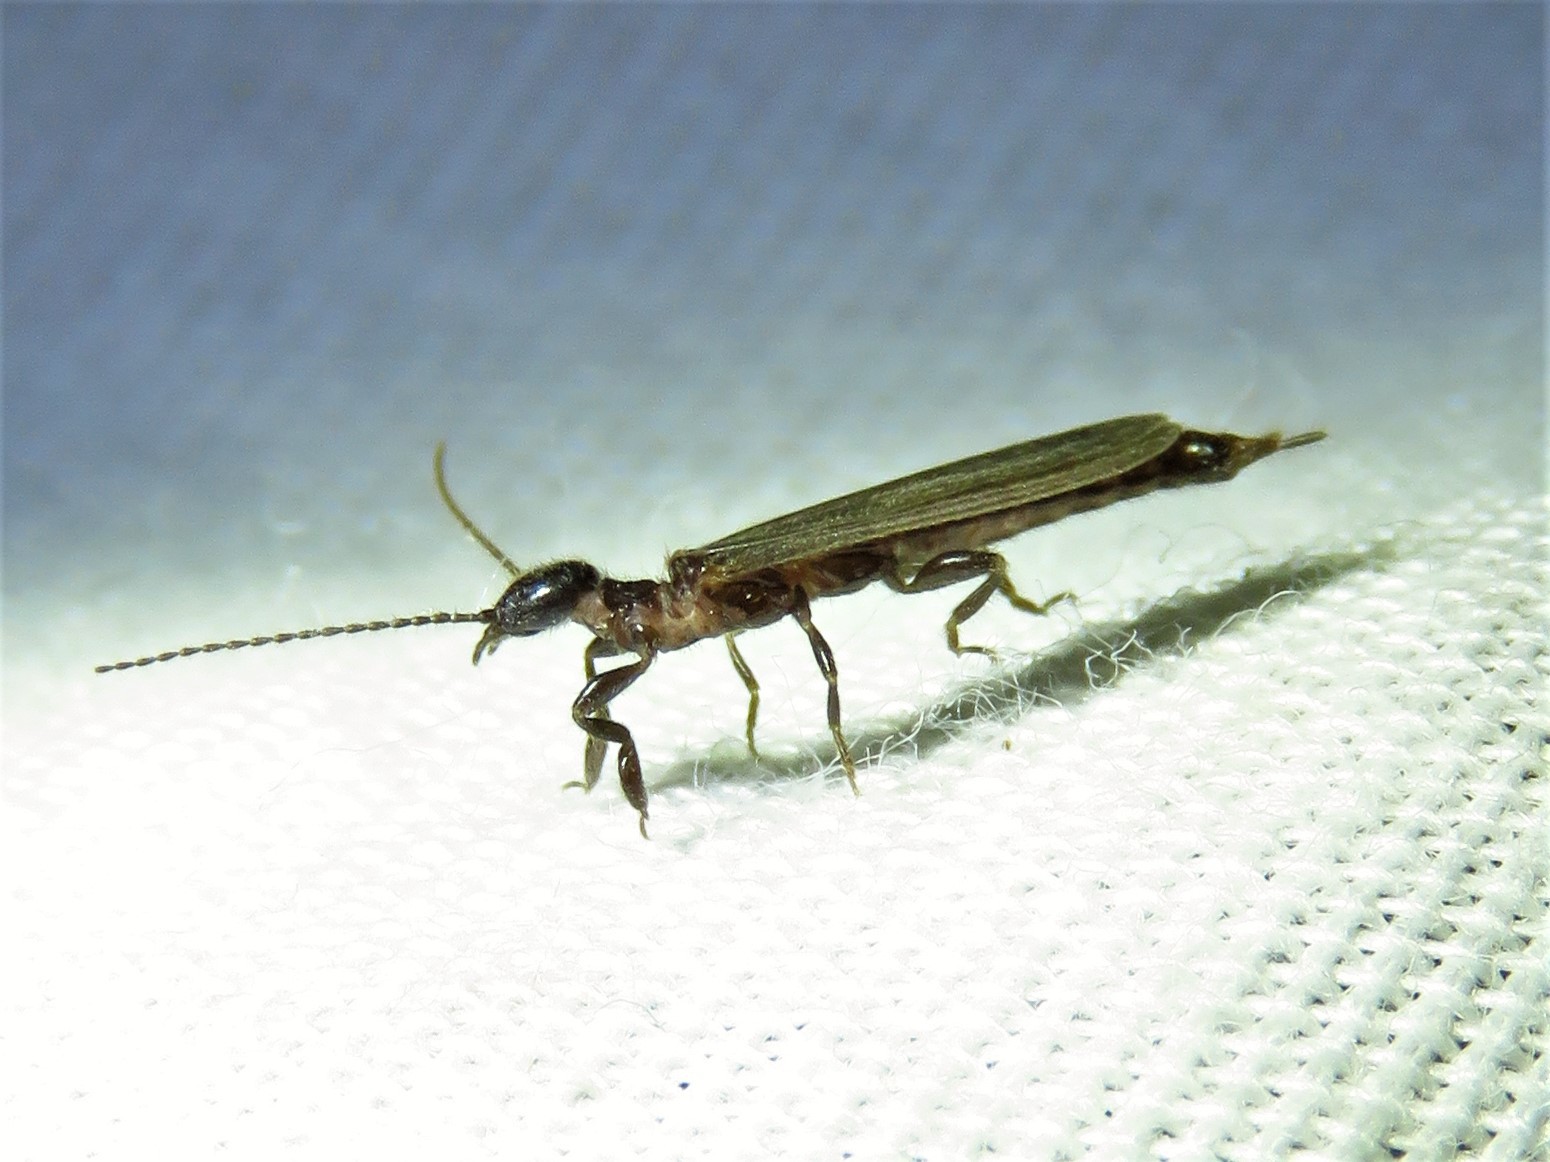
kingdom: Animalia
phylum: Arthropoda
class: Insecta
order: Embioptera
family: Oligotomidae
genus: Oligotoma
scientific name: Oligotoma nigra
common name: Black webspinner
